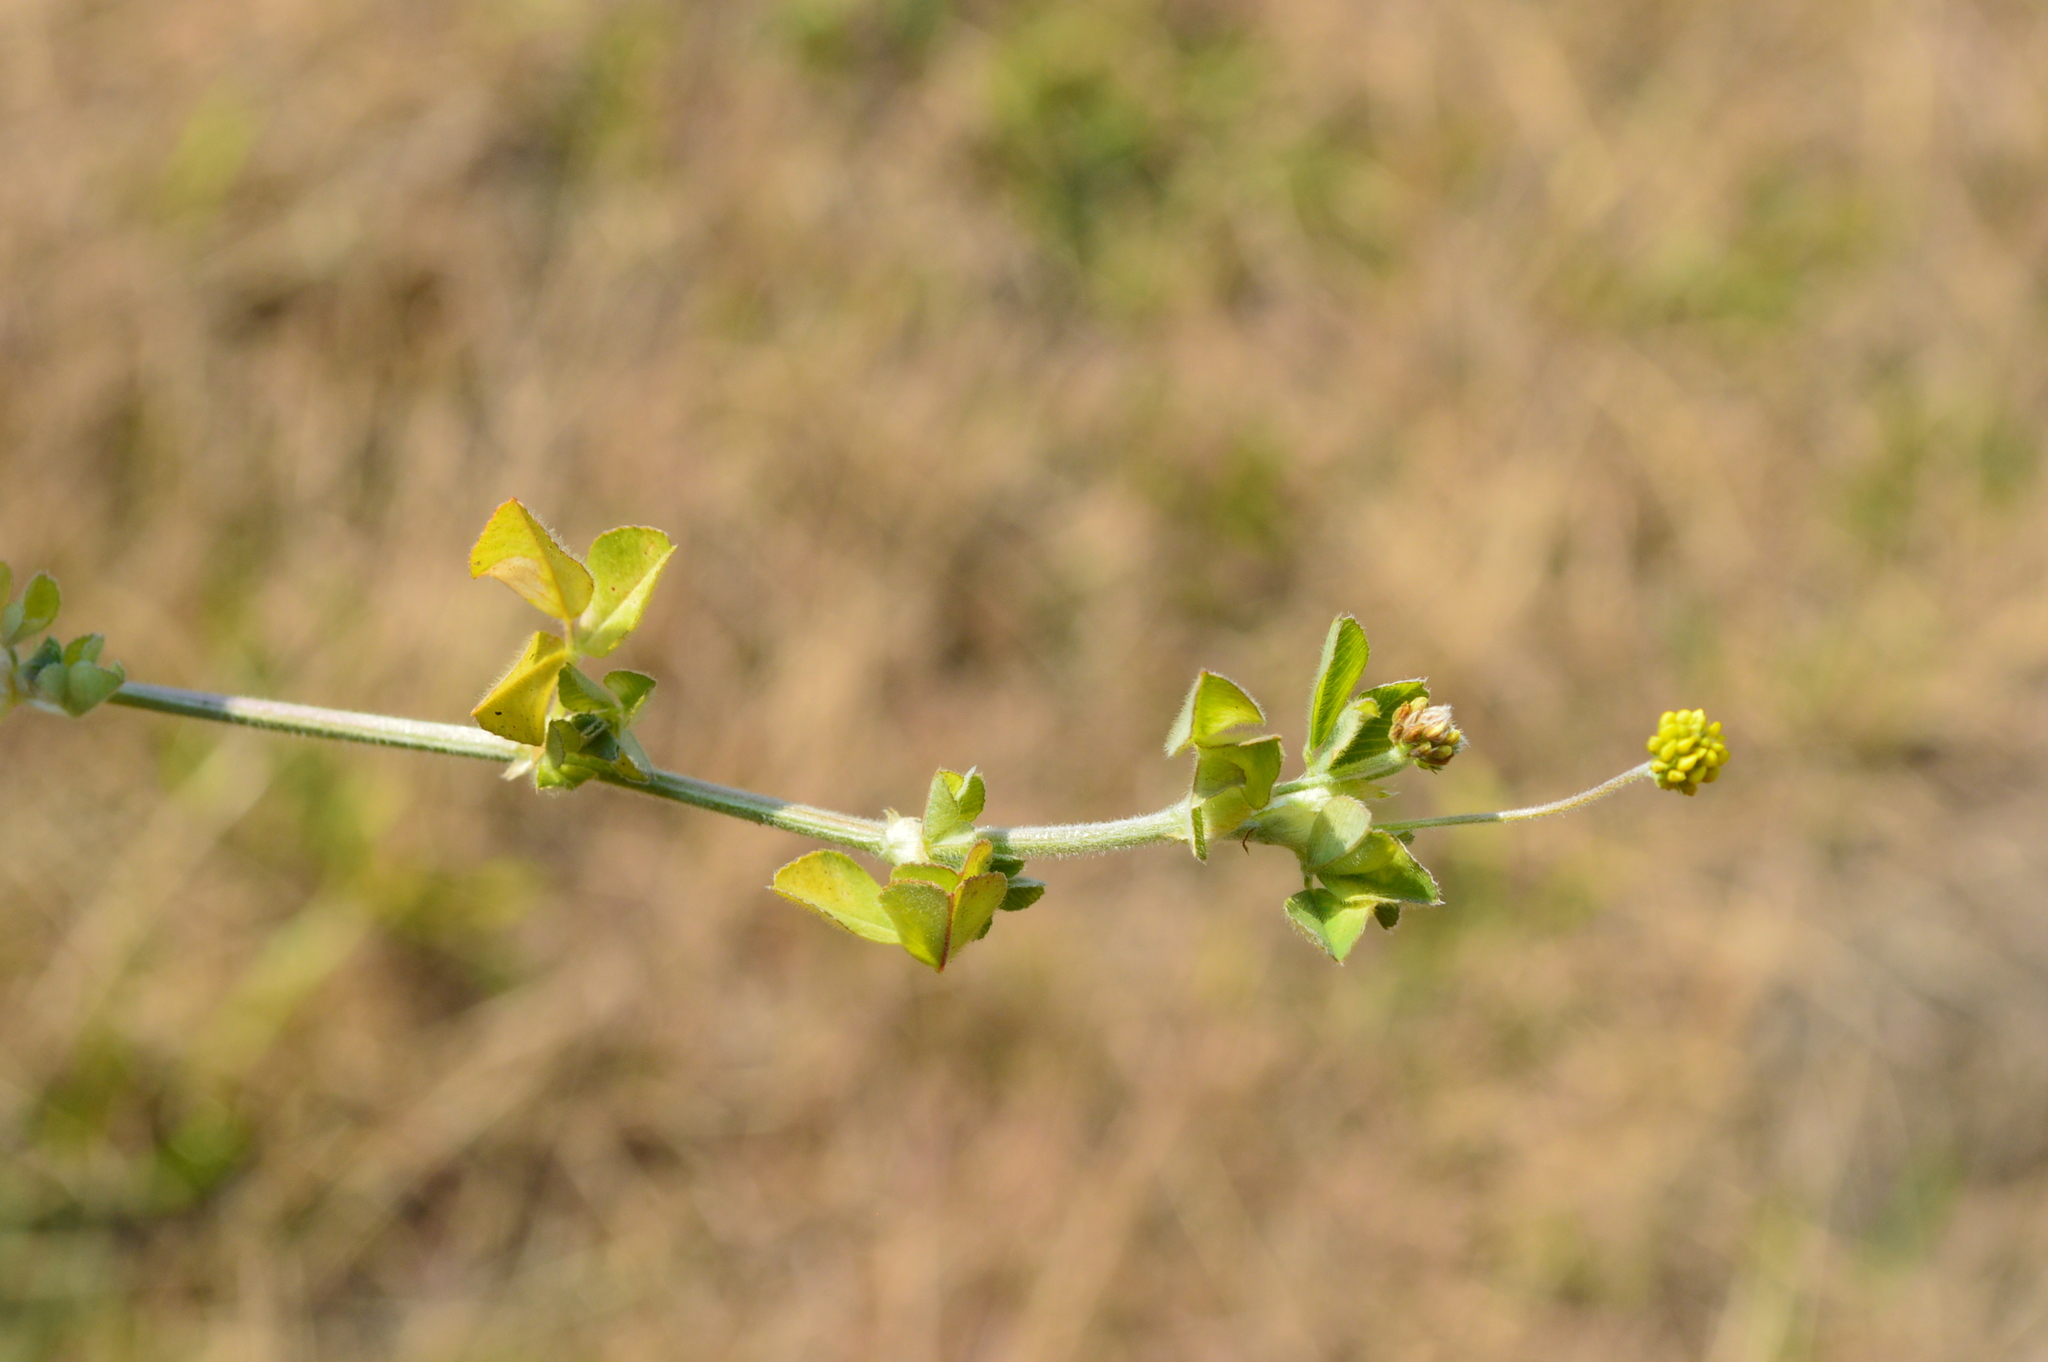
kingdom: Plantae
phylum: Tracheophyta
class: Magnoliopsida
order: Fabales
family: Fabaceae
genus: Medicago
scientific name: Medicago lupulina
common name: Black medick
